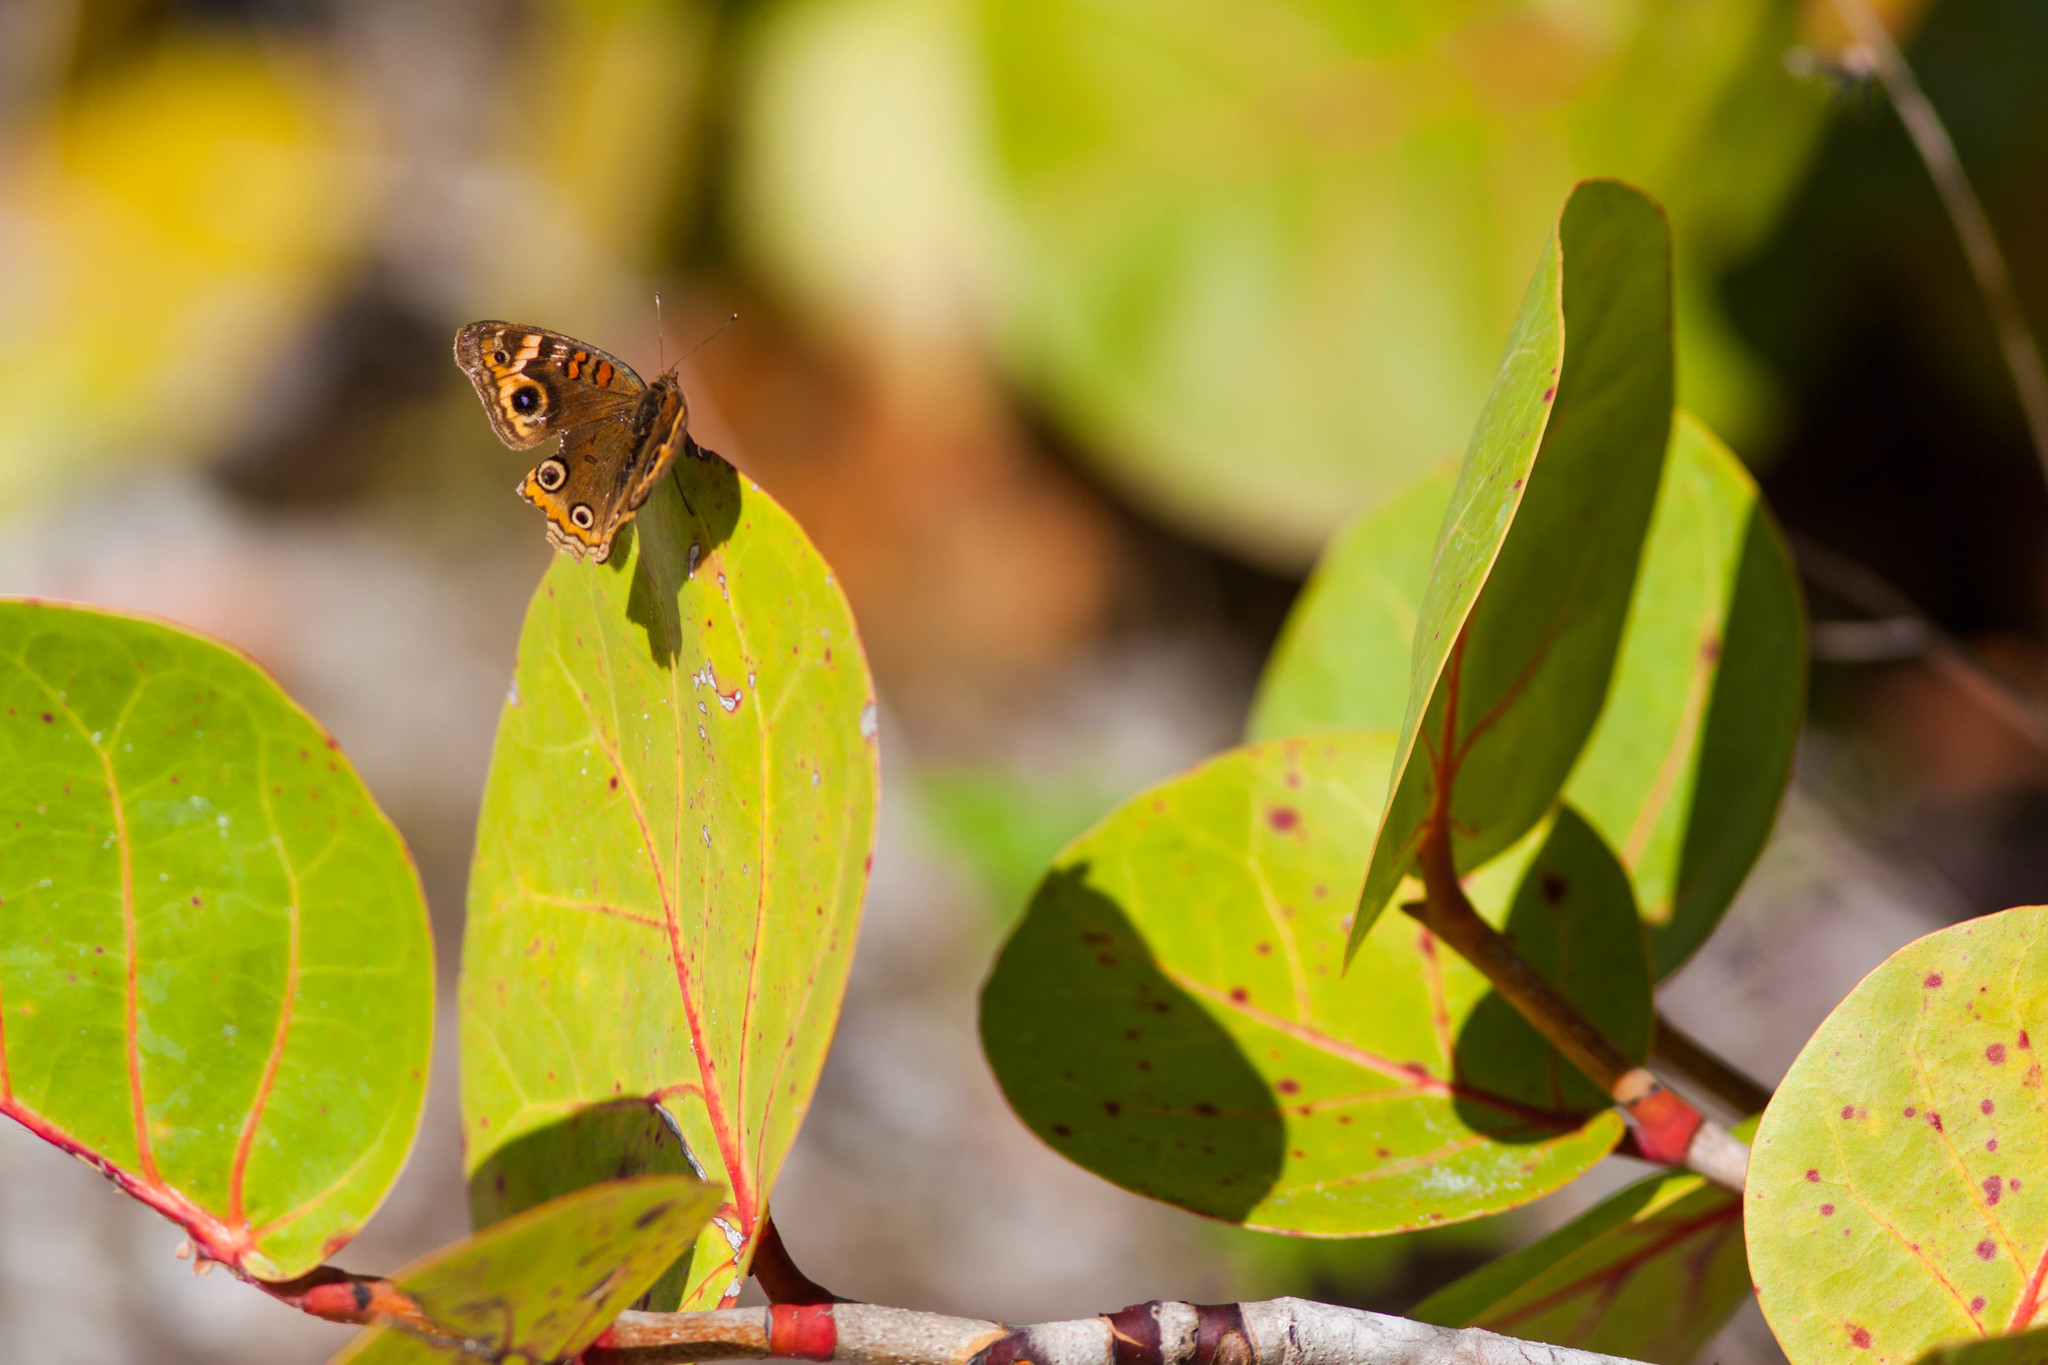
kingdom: Animalia
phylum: Arthropoda
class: Insecta
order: Lepidoptera
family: Nymphalidae
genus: Junonia
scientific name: Junonia neildi
